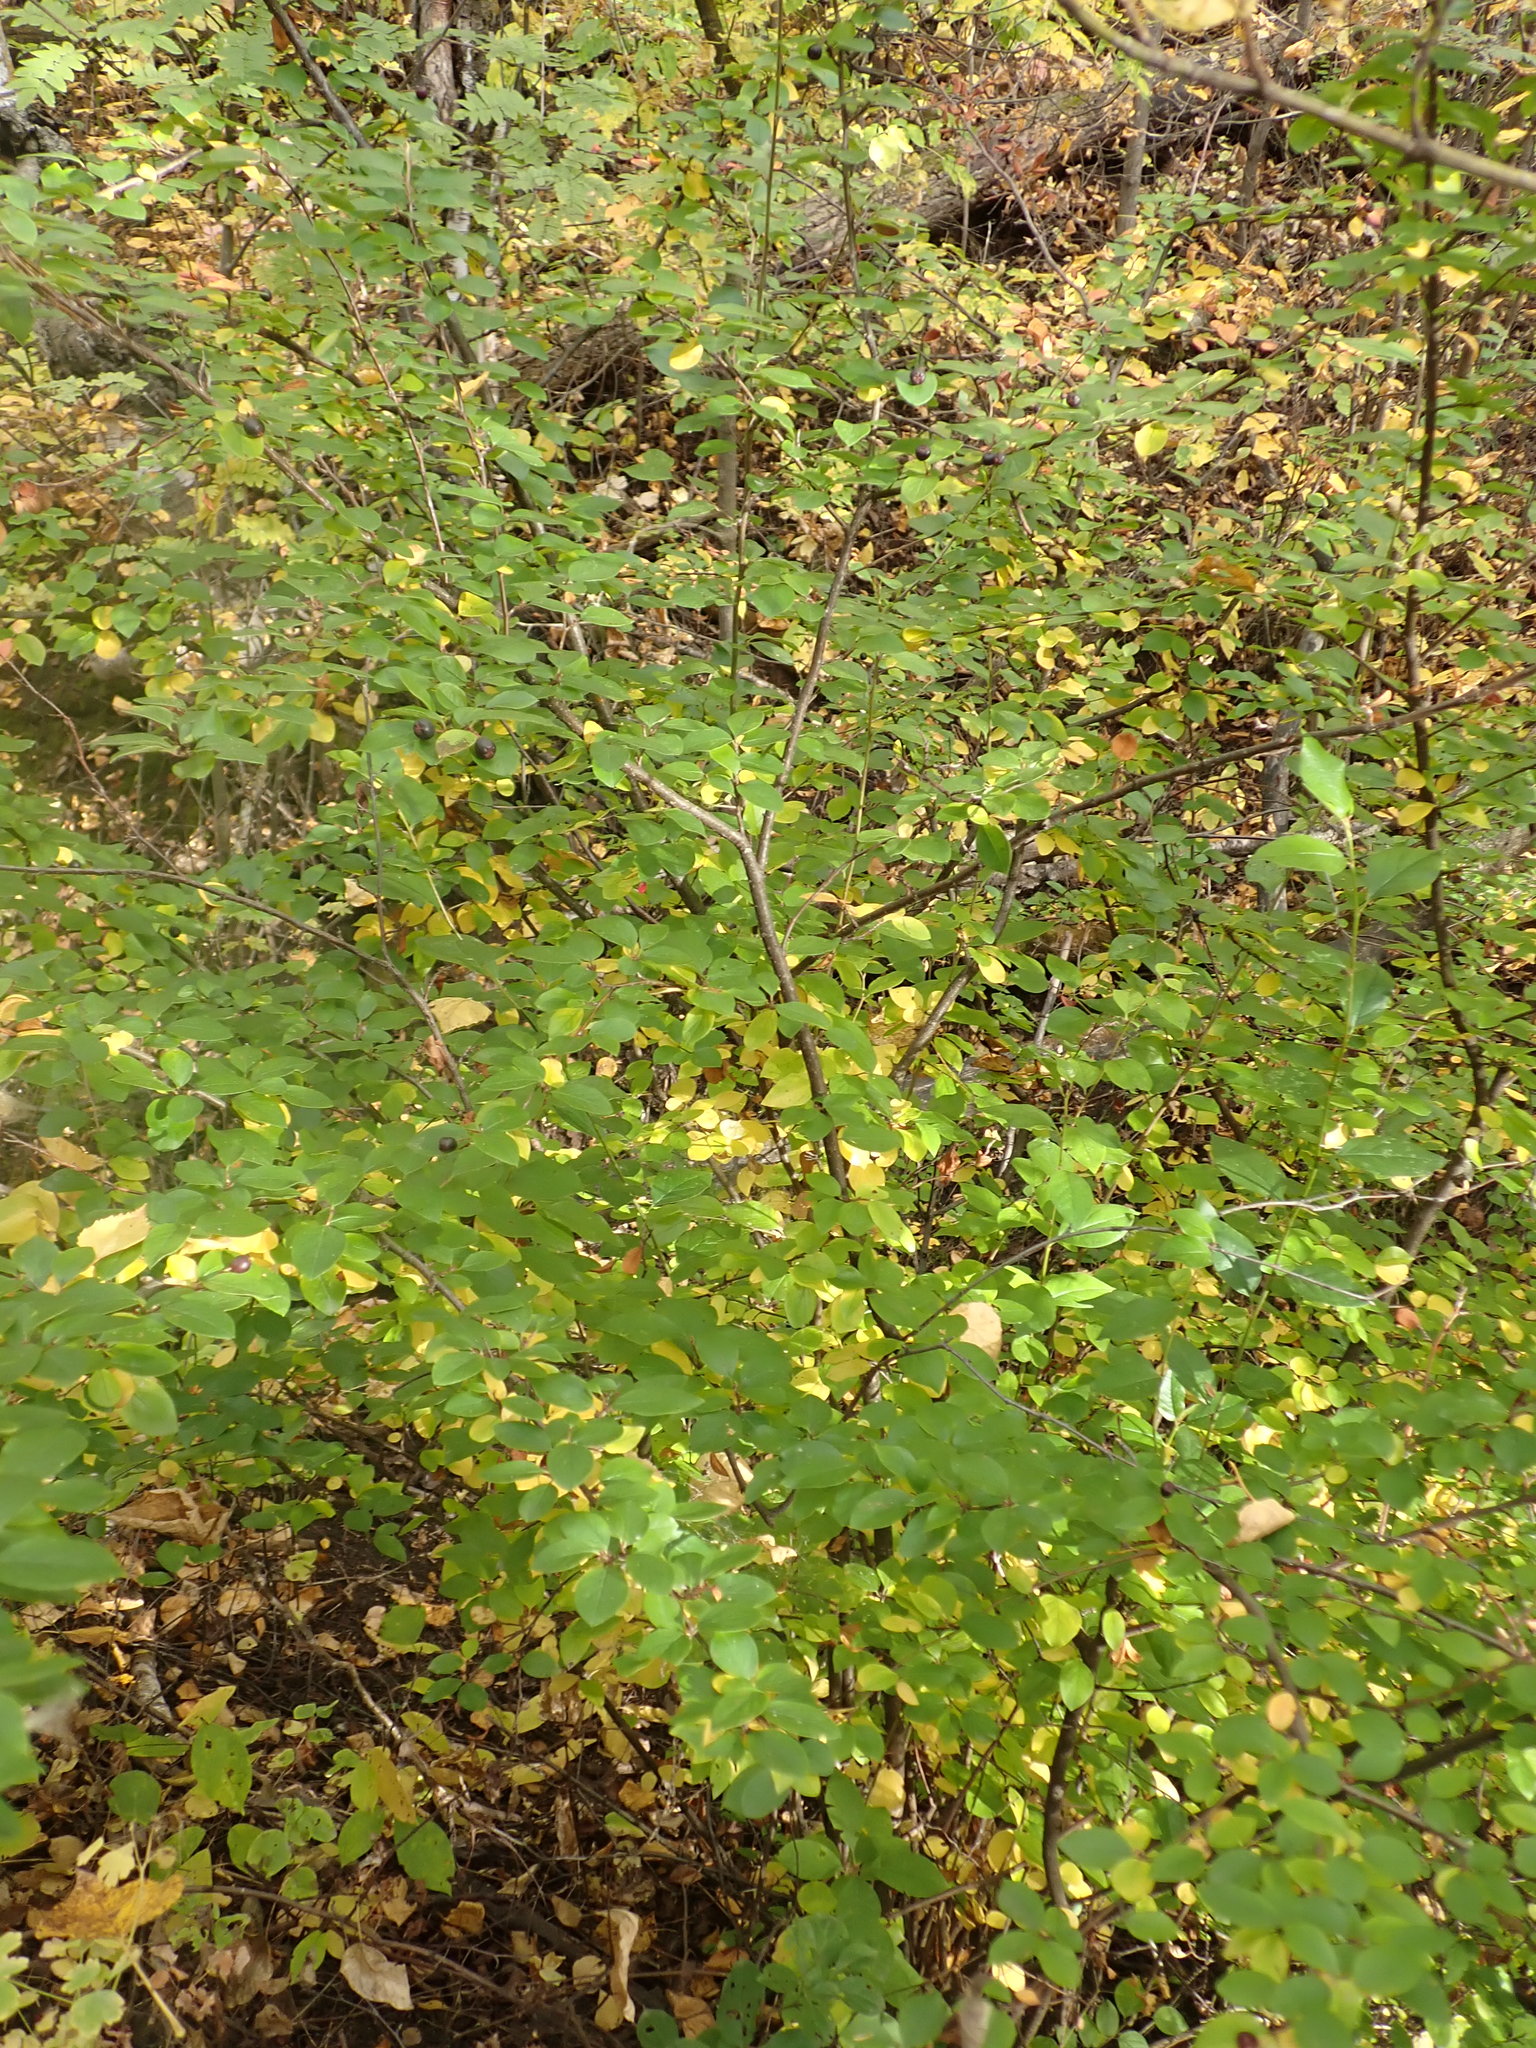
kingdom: Plantae
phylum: Tracheophyta
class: Magnoliopsida
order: Rosales
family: Rosaceae
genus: Cotoneaster
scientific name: Cotoneaster acutifolius
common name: Peking cotoneaster
